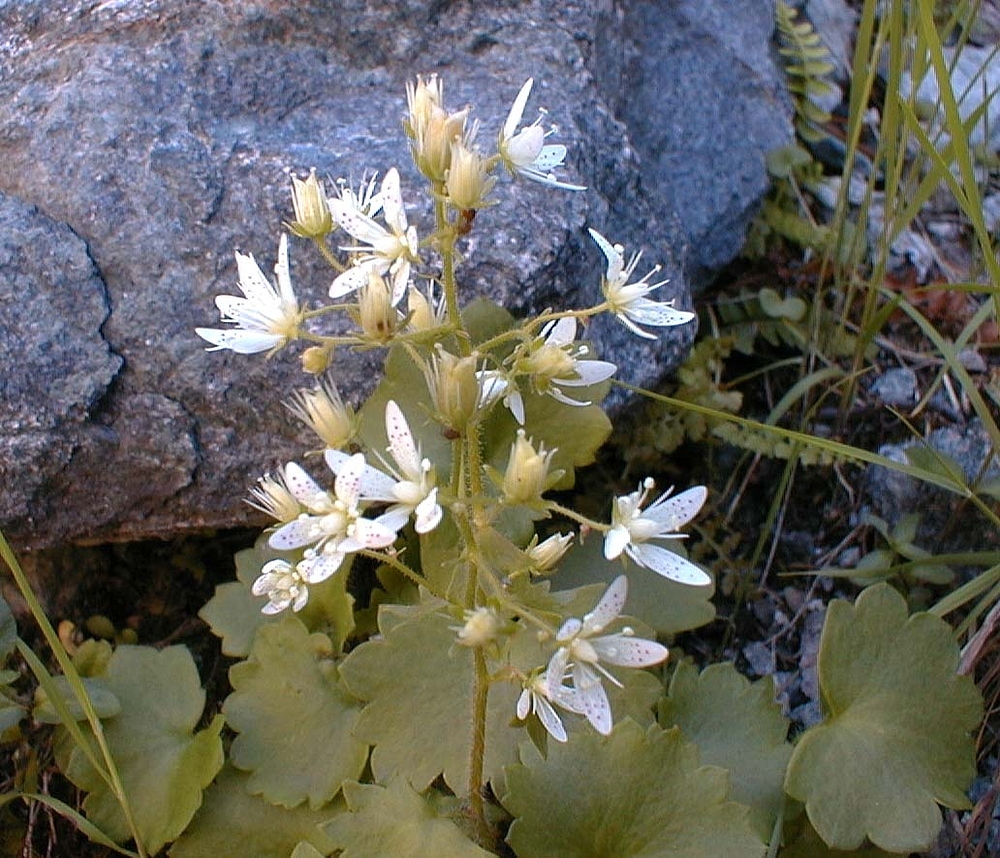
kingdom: Plantae
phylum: Tracheophyta
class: Magnoliopsida
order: Saxifragales
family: Saxifragaceae
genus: Saxifraga
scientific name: Saxifraga rotundifolia
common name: Round-leaved saxifrage
